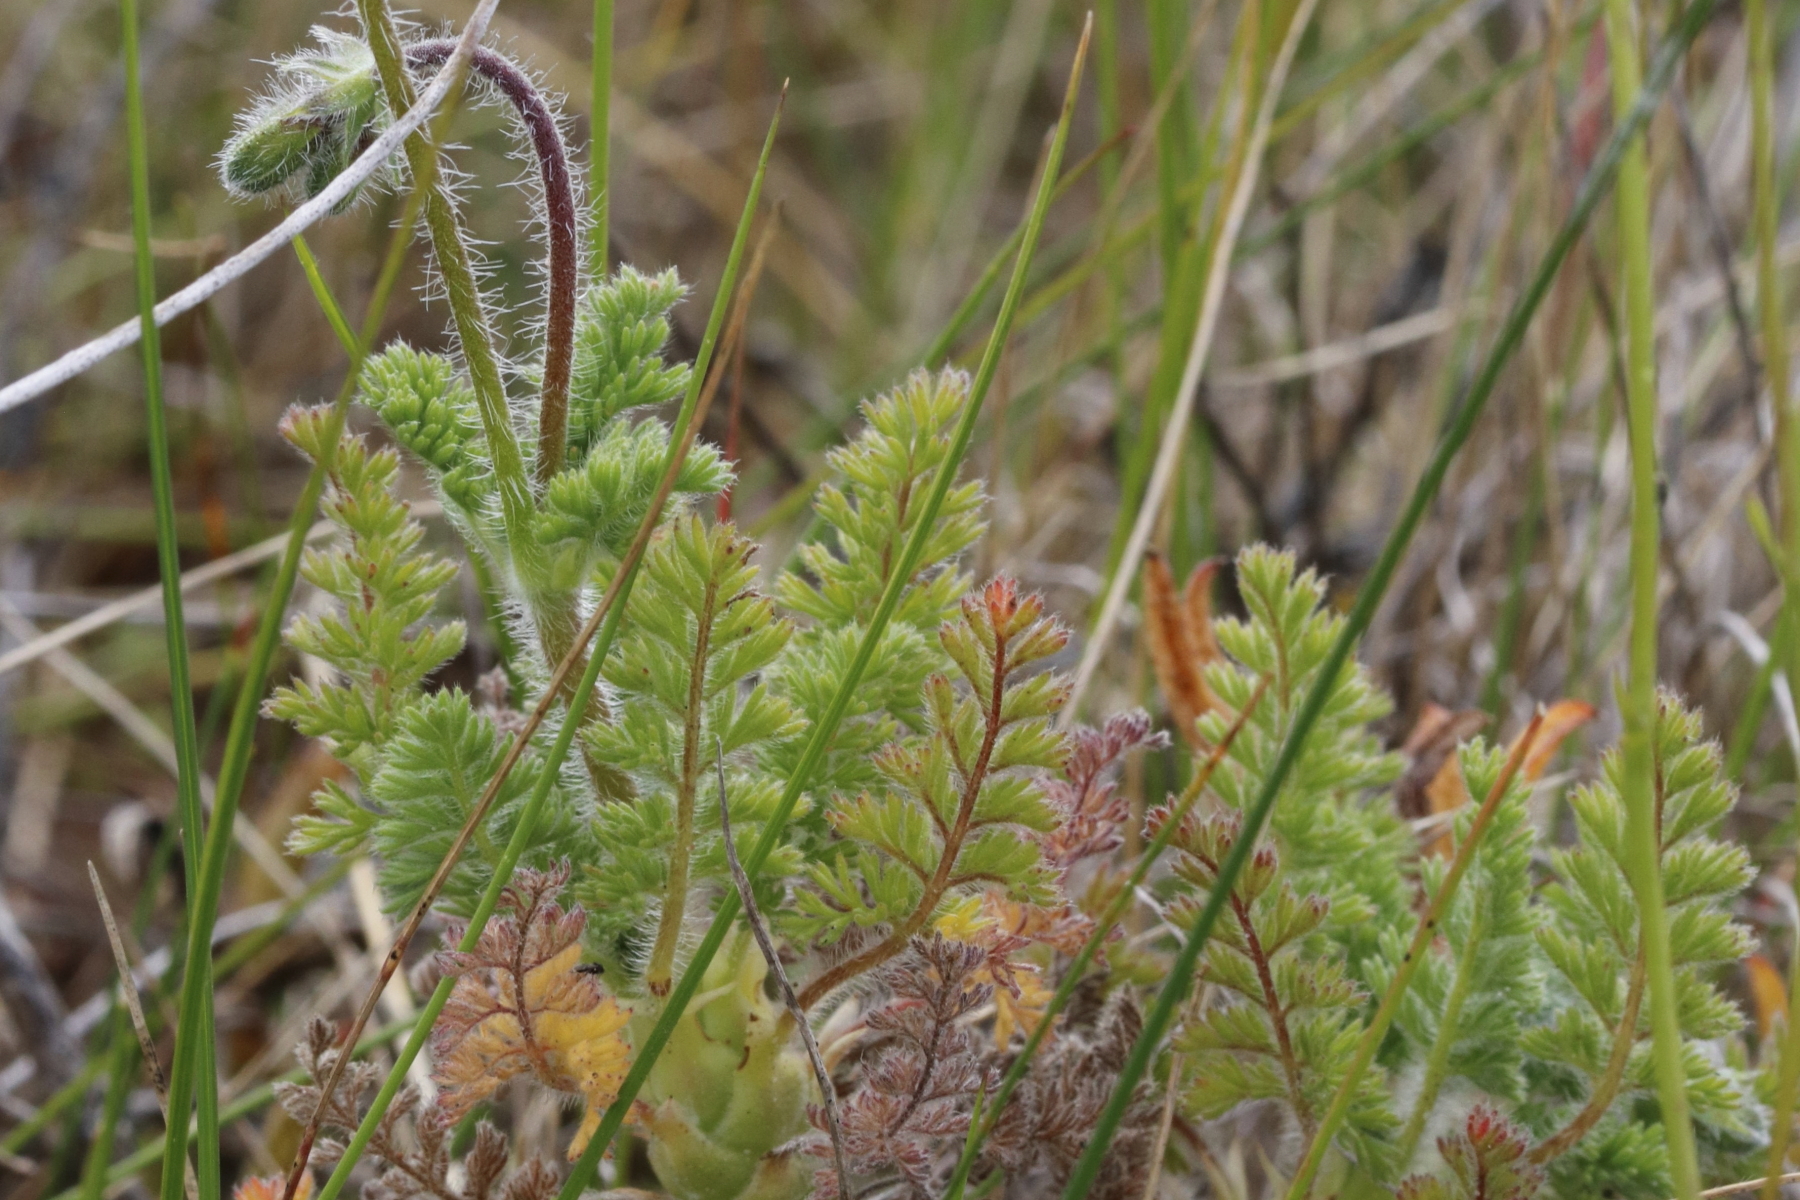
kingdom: Plantae
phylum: Tracheophyta
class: Magnoliopsida
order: Geraniales
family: Geraniaceae
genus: Pelargonium
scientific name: Pelargonium hirtum
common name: Fine-leaf pelargonium
